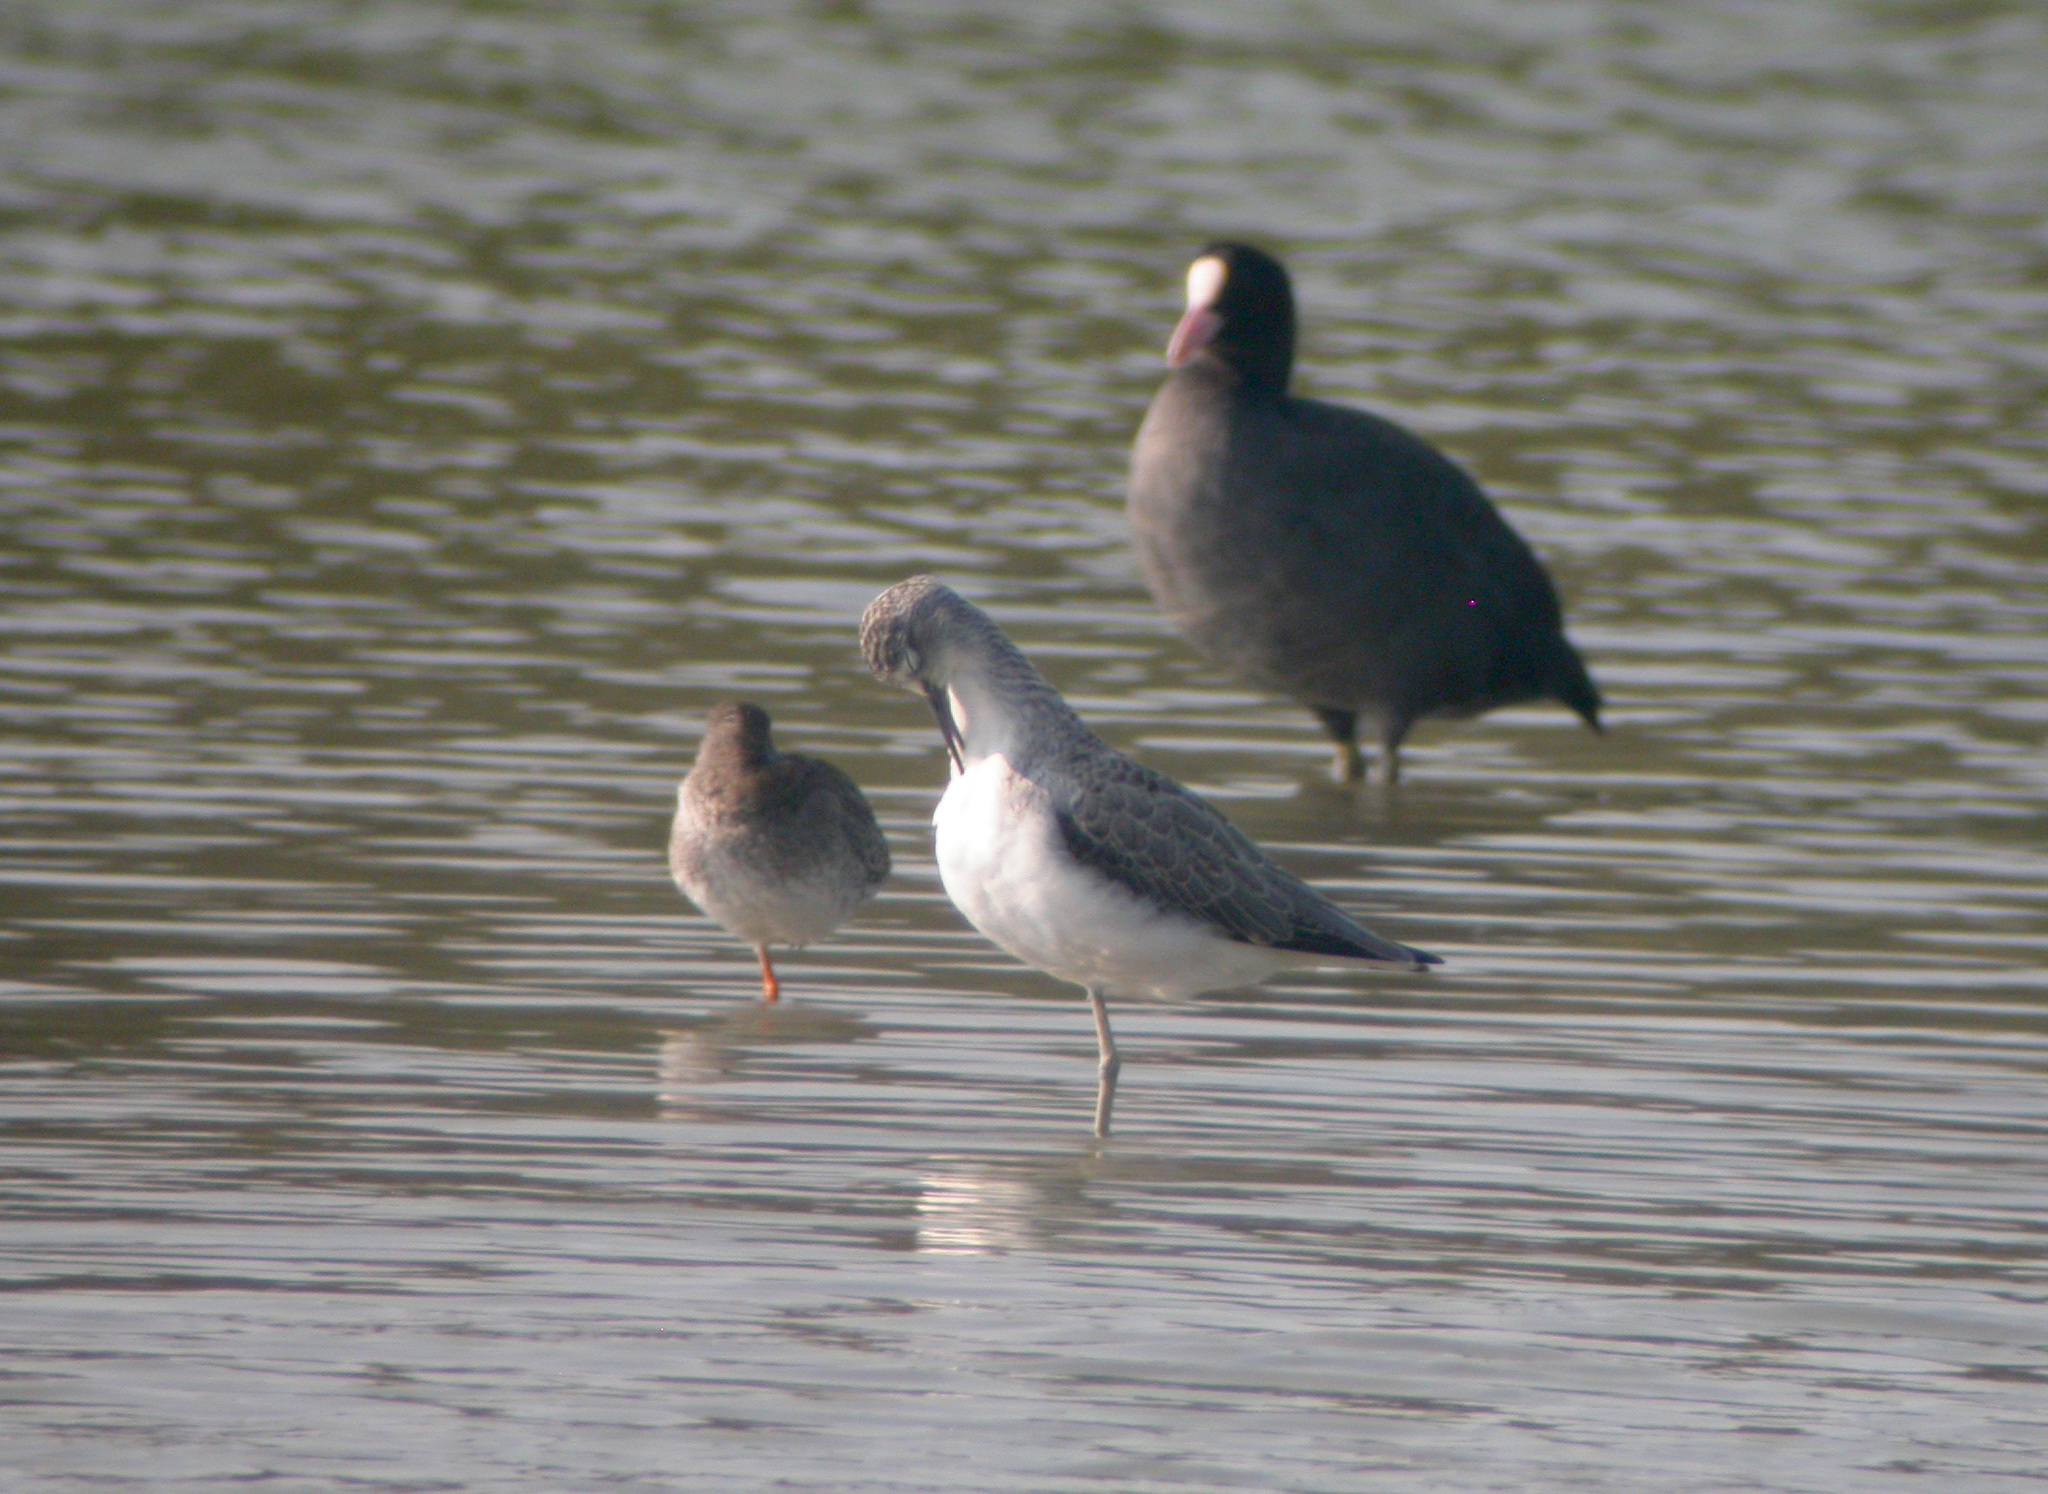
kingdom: Animalia
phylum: Chordata
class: Aves
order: Charadriiformes
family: Scolopacidae
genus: Tringa
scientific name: Tringa nebularia
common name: Common greenshank
